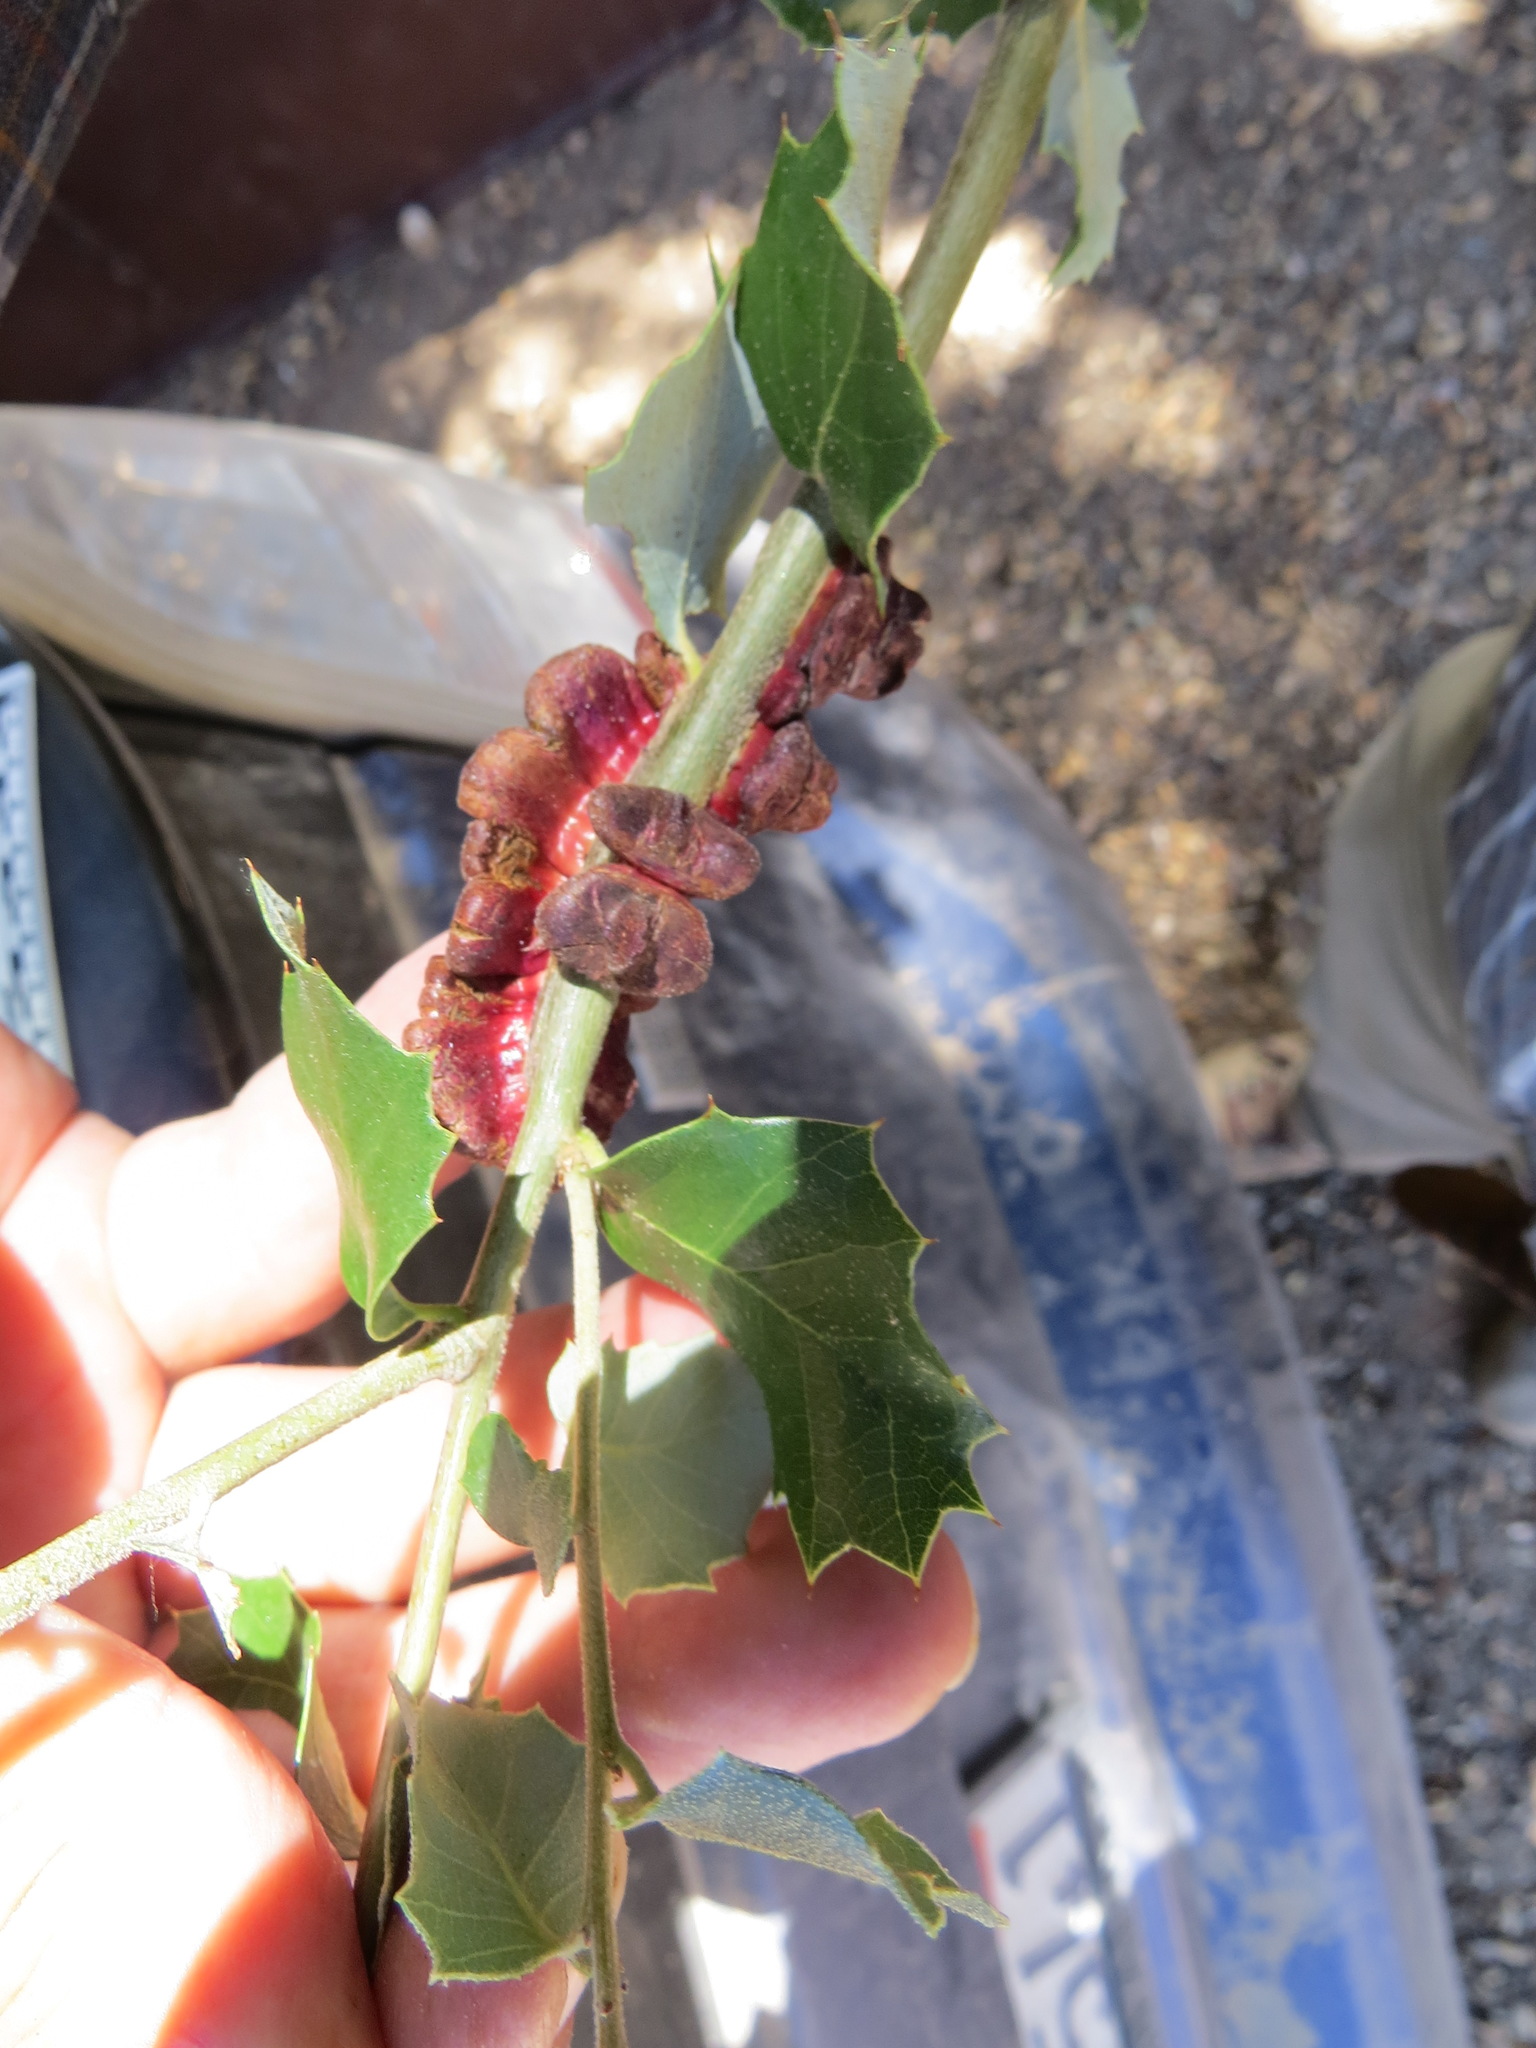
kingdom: Animalia
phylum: Arthropoda
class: Insecta
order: Hymenoptera
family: Cynipidae
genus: Disholandricus
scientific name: Disholandricus
